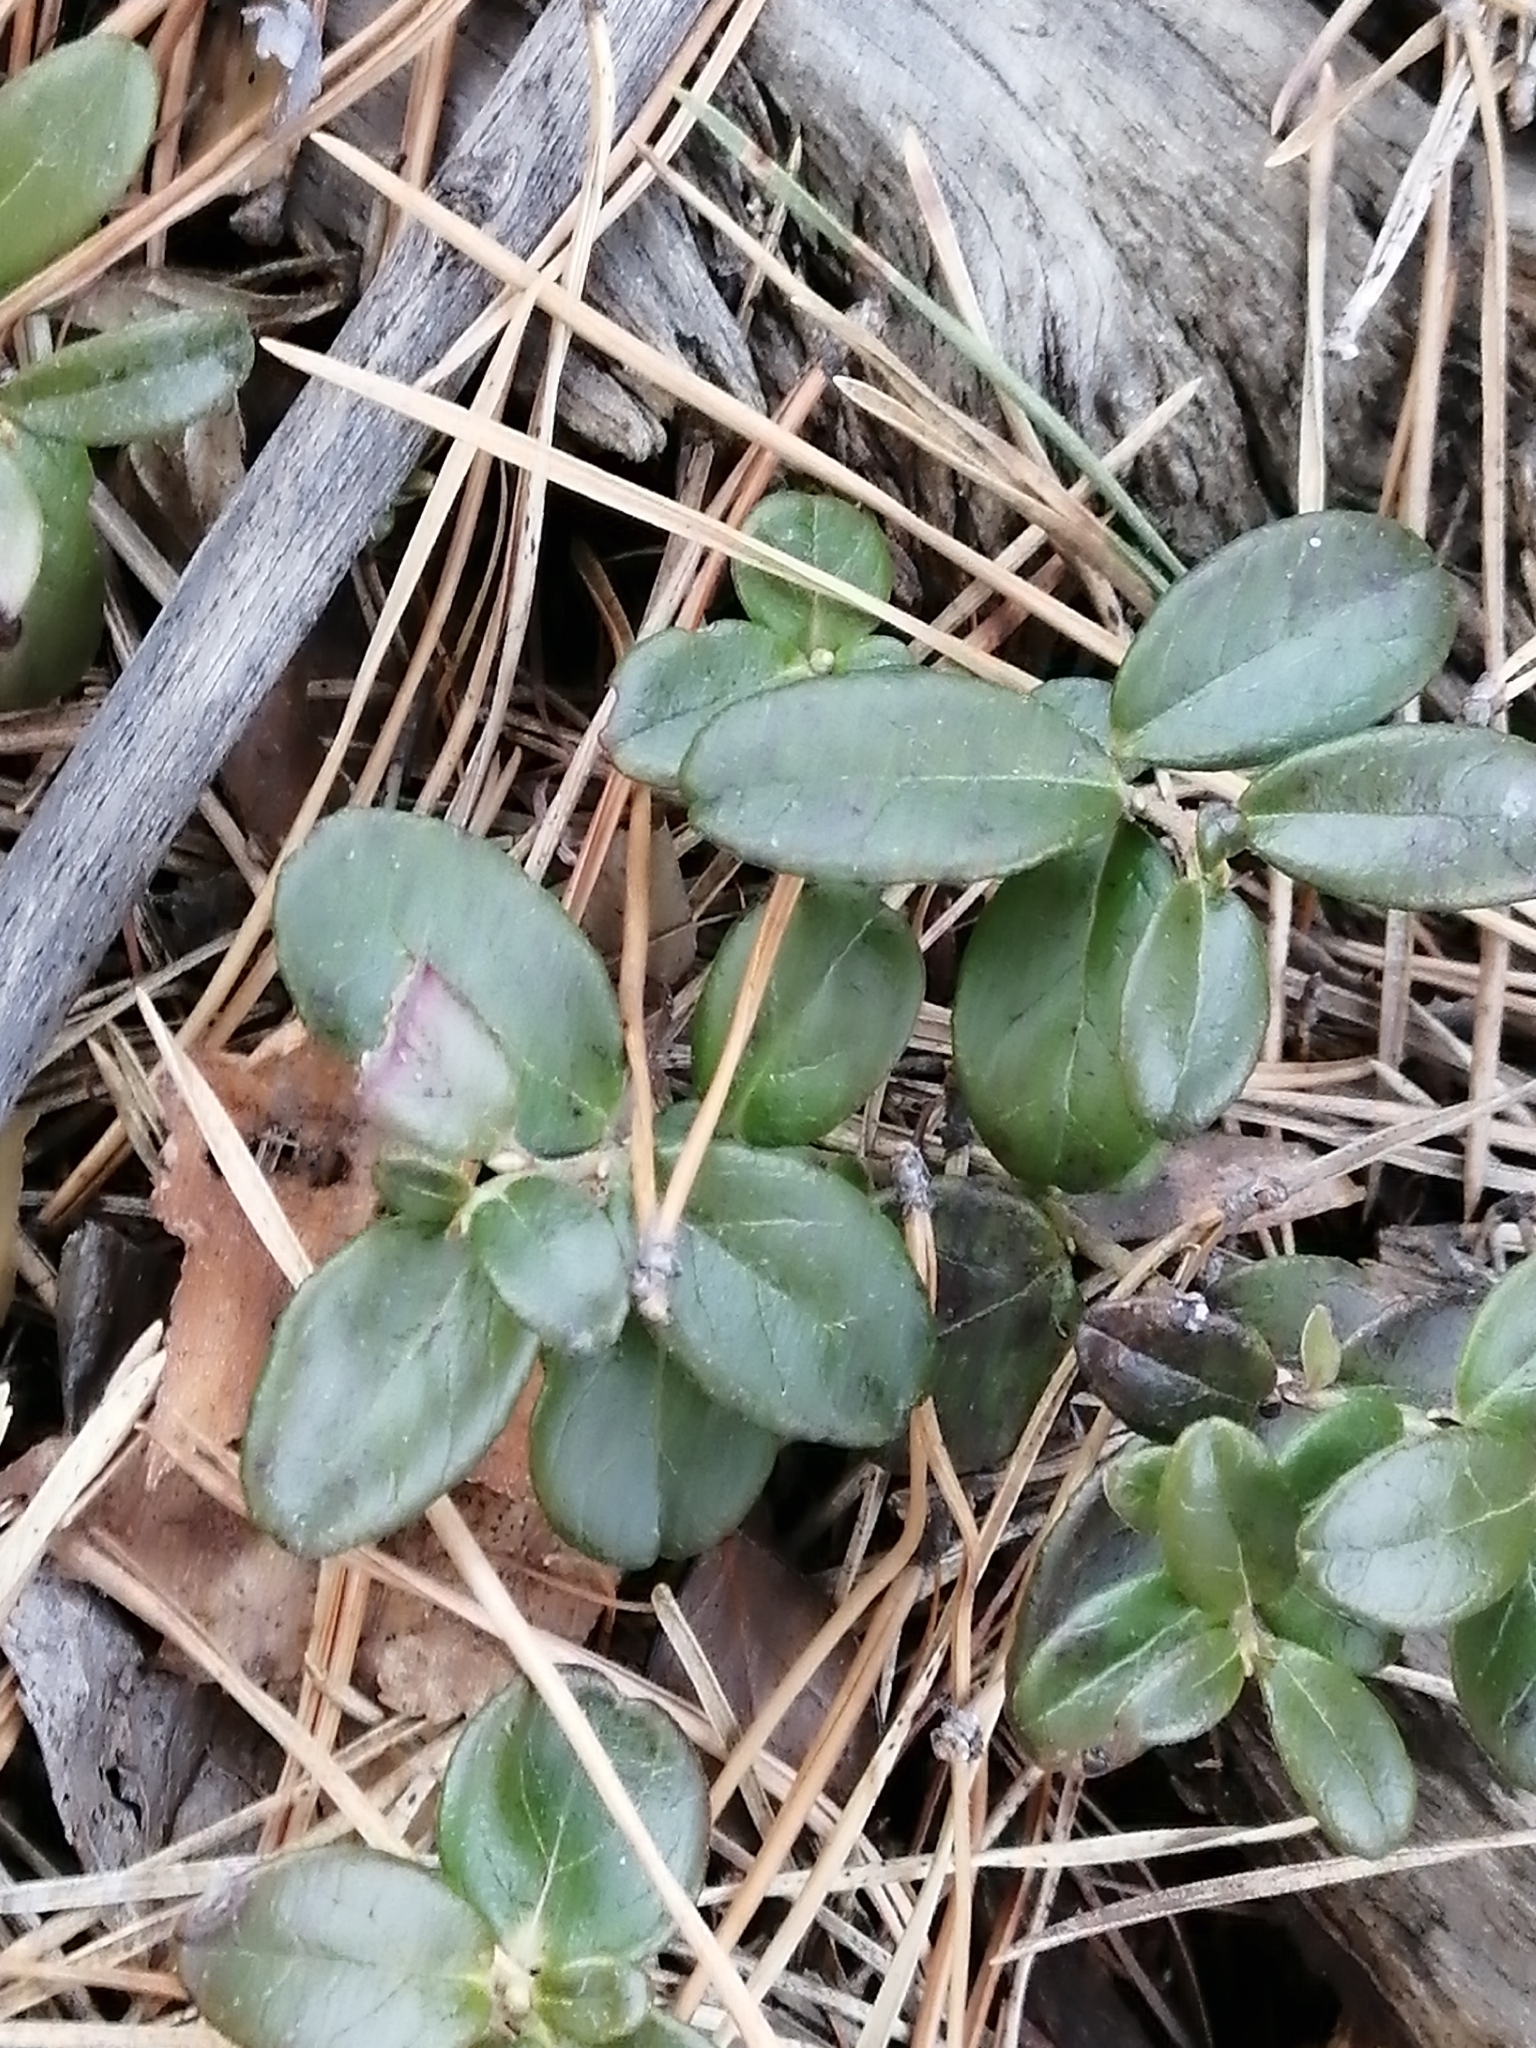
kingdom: Plantae
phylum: Tracheophyta
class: Magnoliopsida
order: Ericales
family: Ericaceae
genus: Vaccinium
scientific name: Vaccinium vitis-idaea
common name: Cowberry
